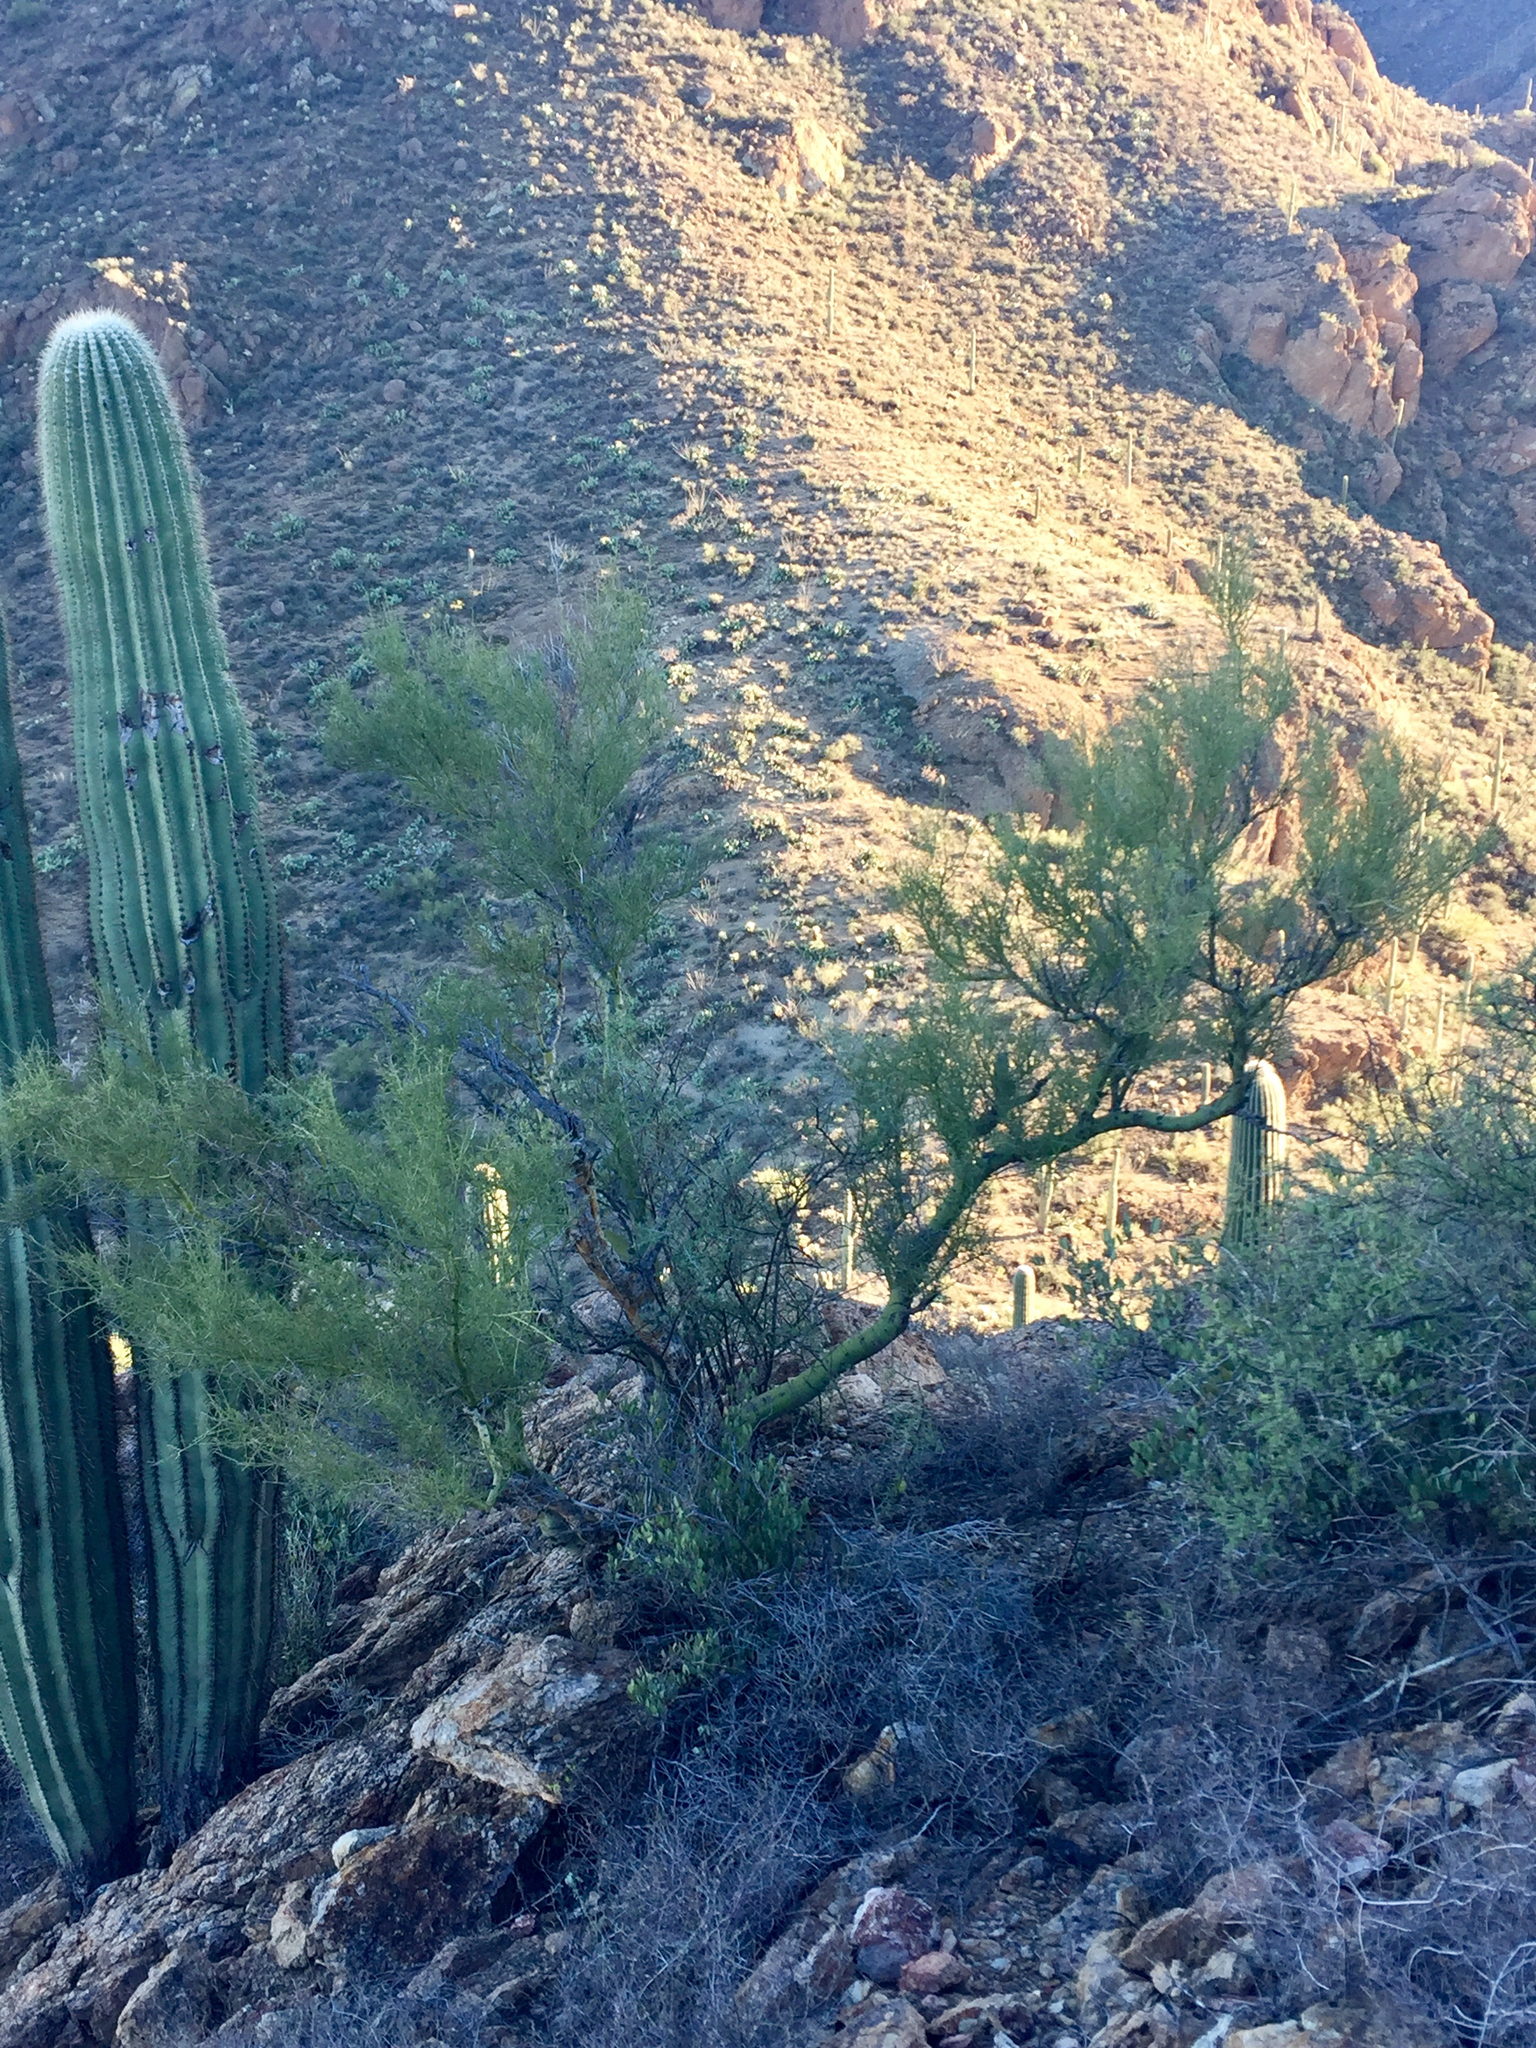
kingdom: Plantae
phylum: Tracheophyta
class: Magnoliopsida
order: Fabales
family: Fabaceae
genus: Parkinsonia
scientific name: Parkinsonia microphylla
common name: Yellow paloverde
